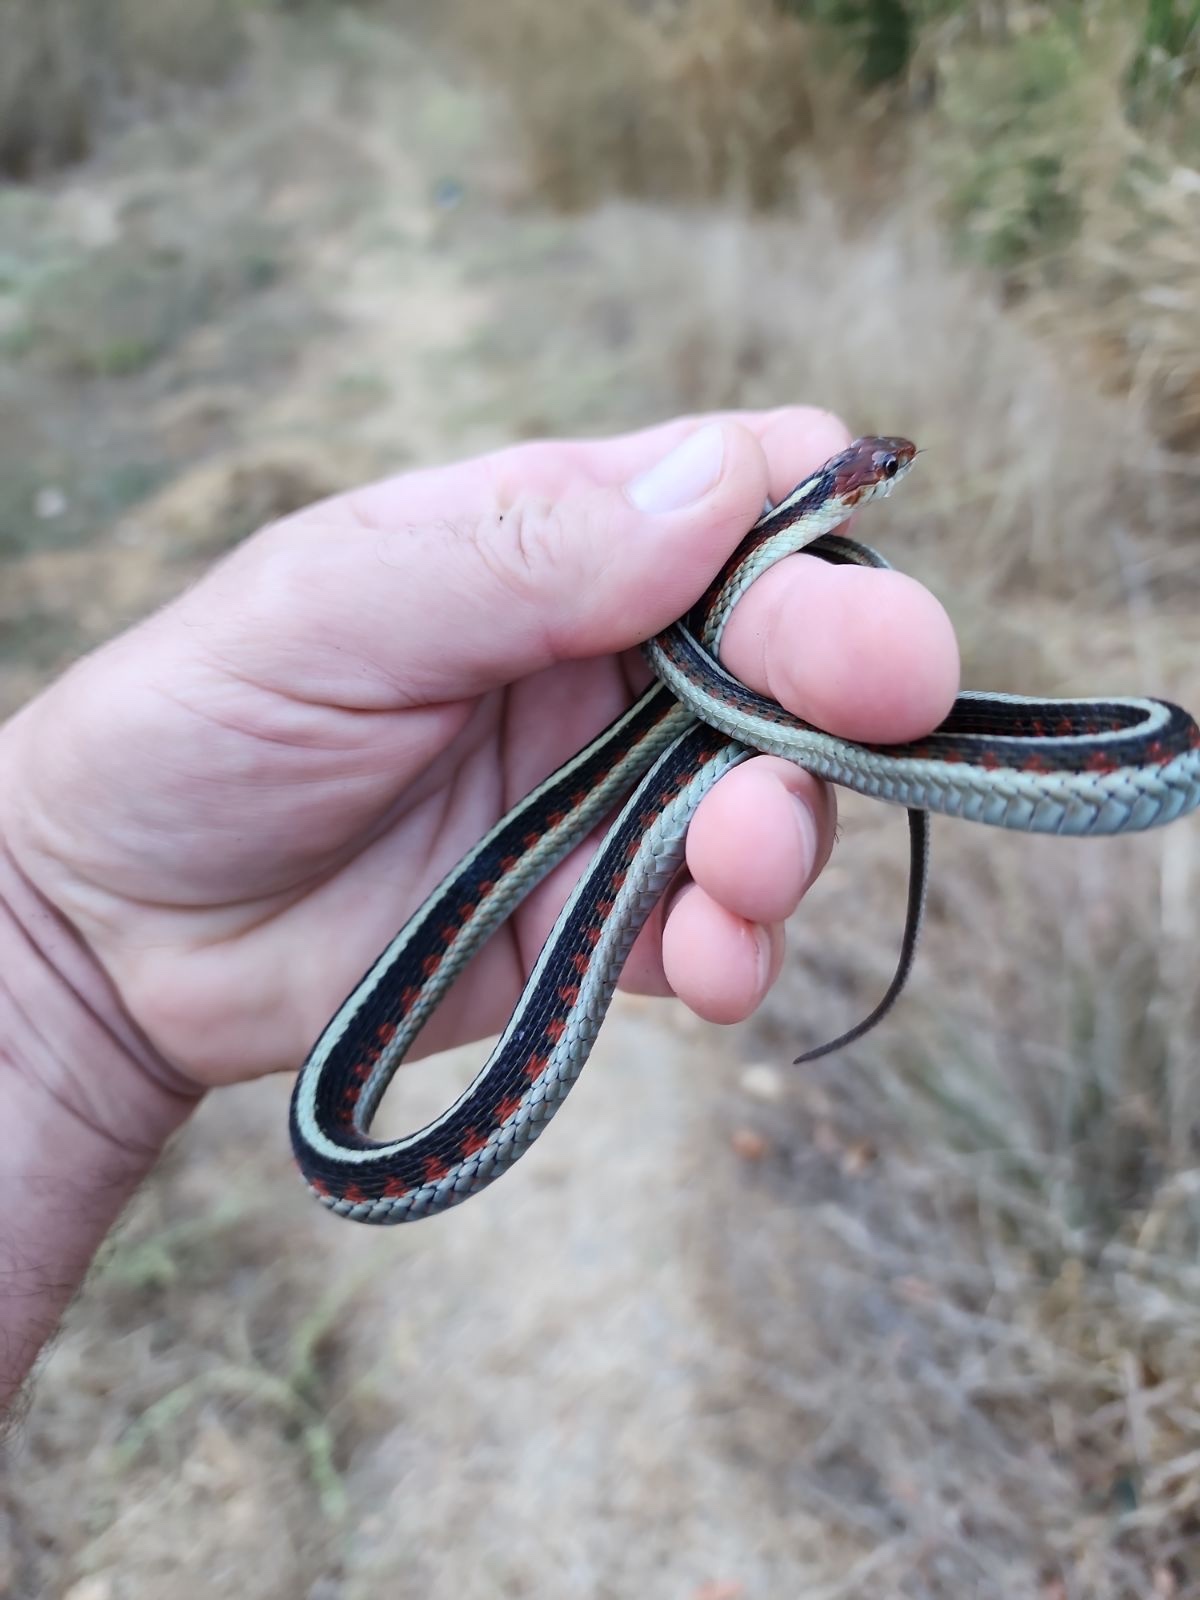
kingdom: Animalia
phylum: Chordata
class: Squamata
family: Colubridae
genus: Thamnophis
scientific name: Thamnophis sirtalis
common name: Common garter snake
